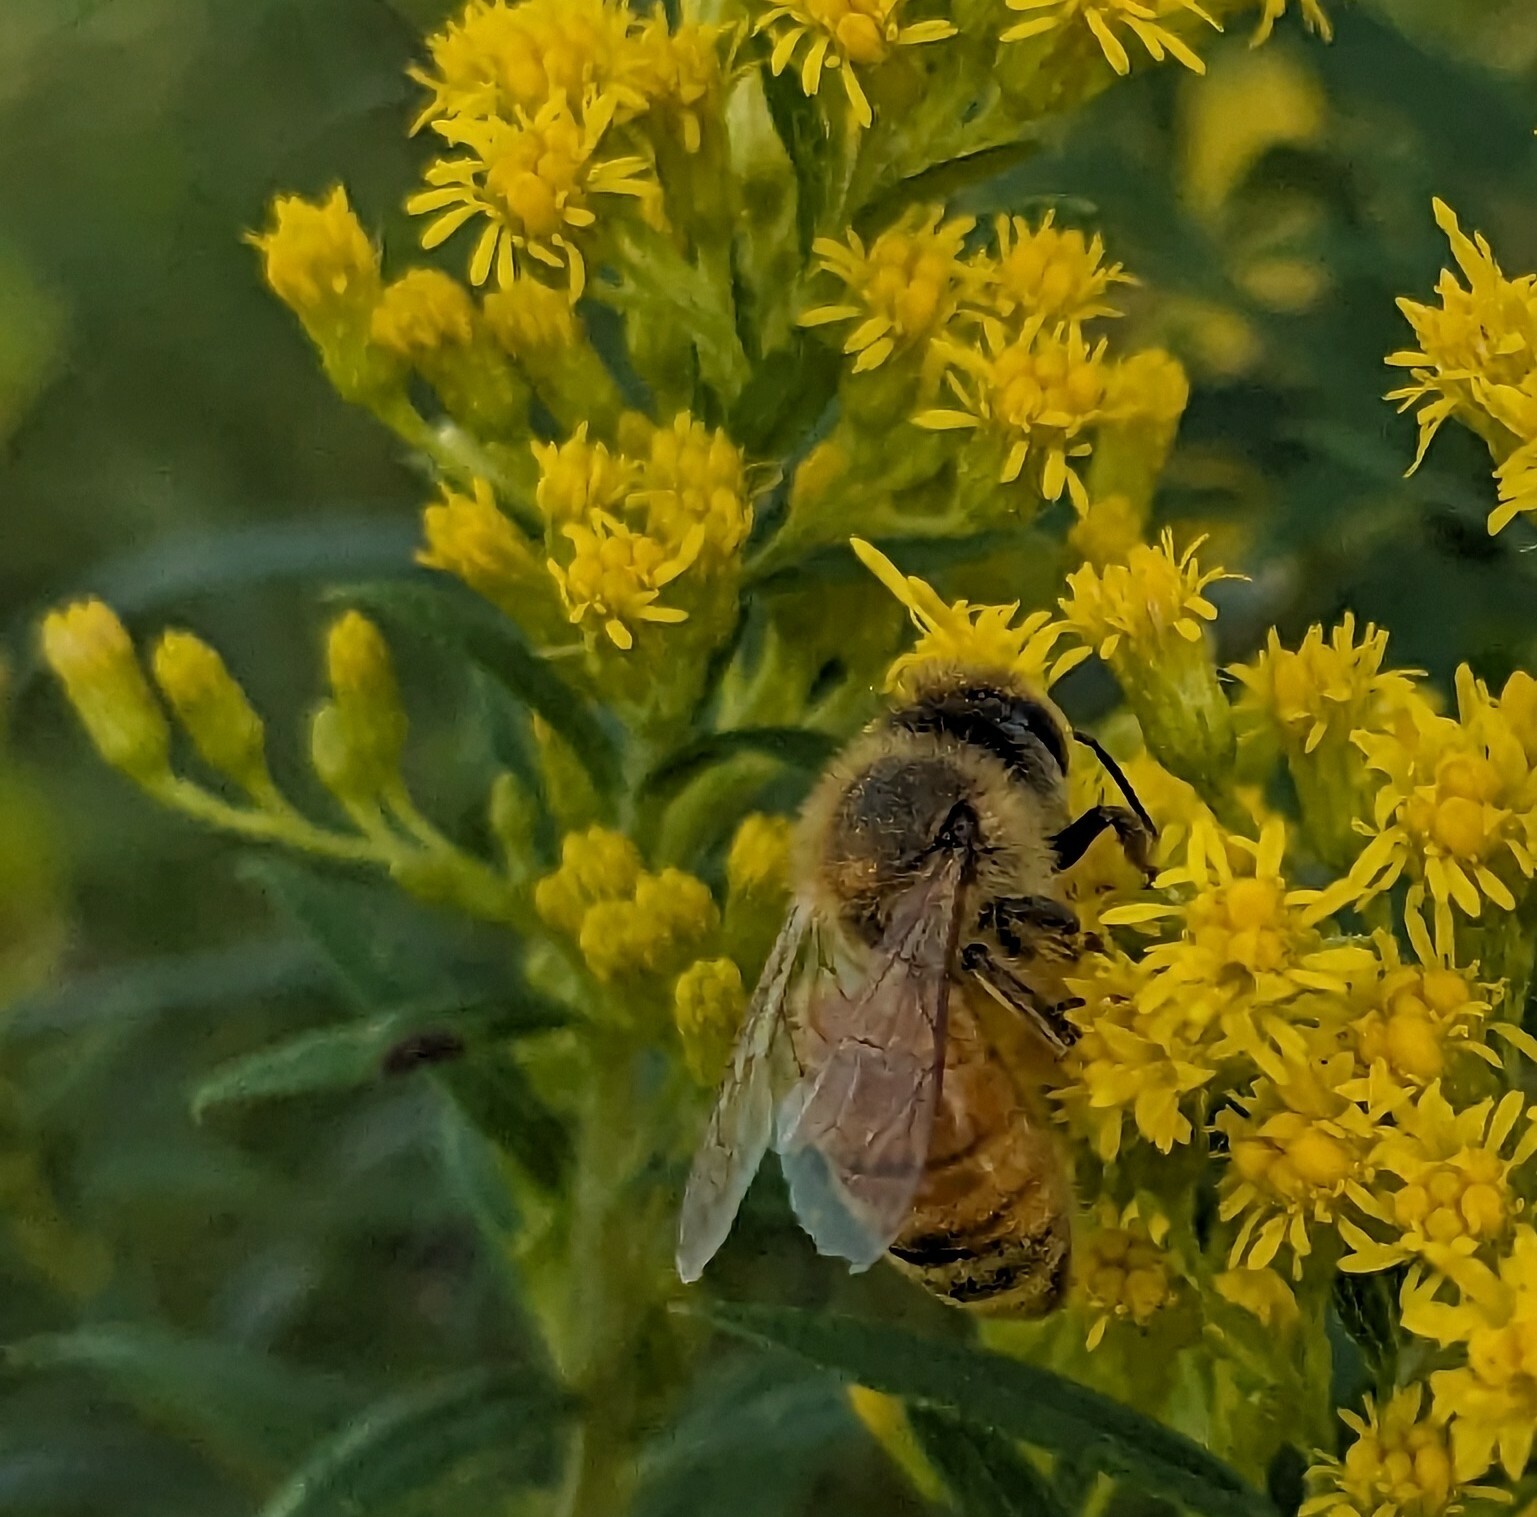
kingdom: Animalia
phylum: Arthropoda
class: Insecta
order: Hymenoptera
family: Apidae
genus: Apis
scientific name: Apis mellifera
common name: Honey bee
